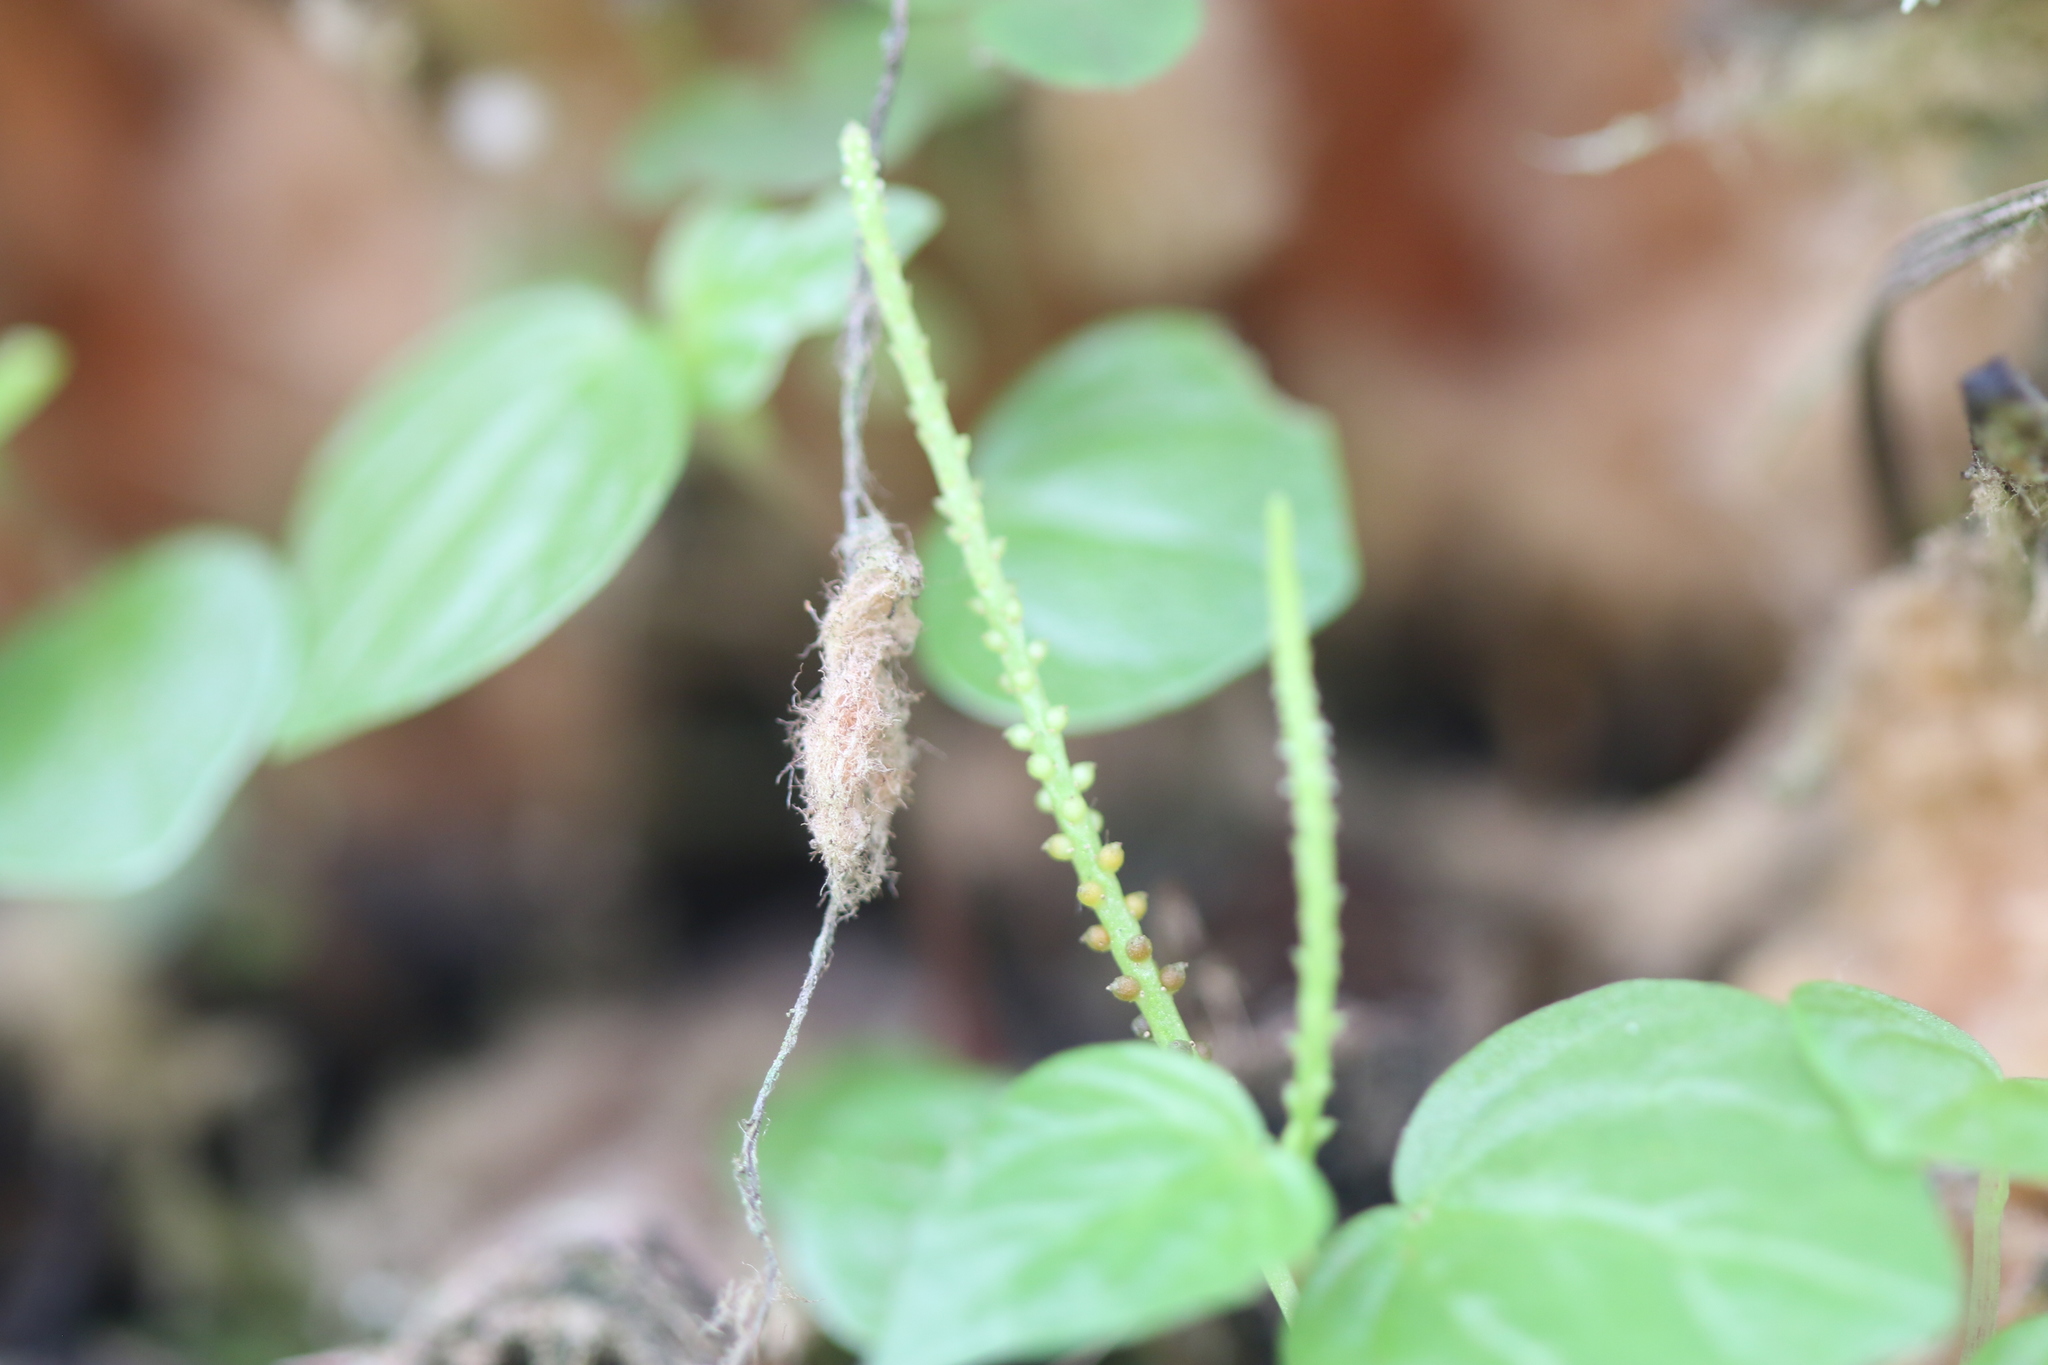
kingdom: Plantae
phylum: Tracheophyta
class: Magnoliopsida
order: Piperales
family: Piperaceae
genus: Peperomia
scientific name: Peperomia pellucida
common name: Man to man
